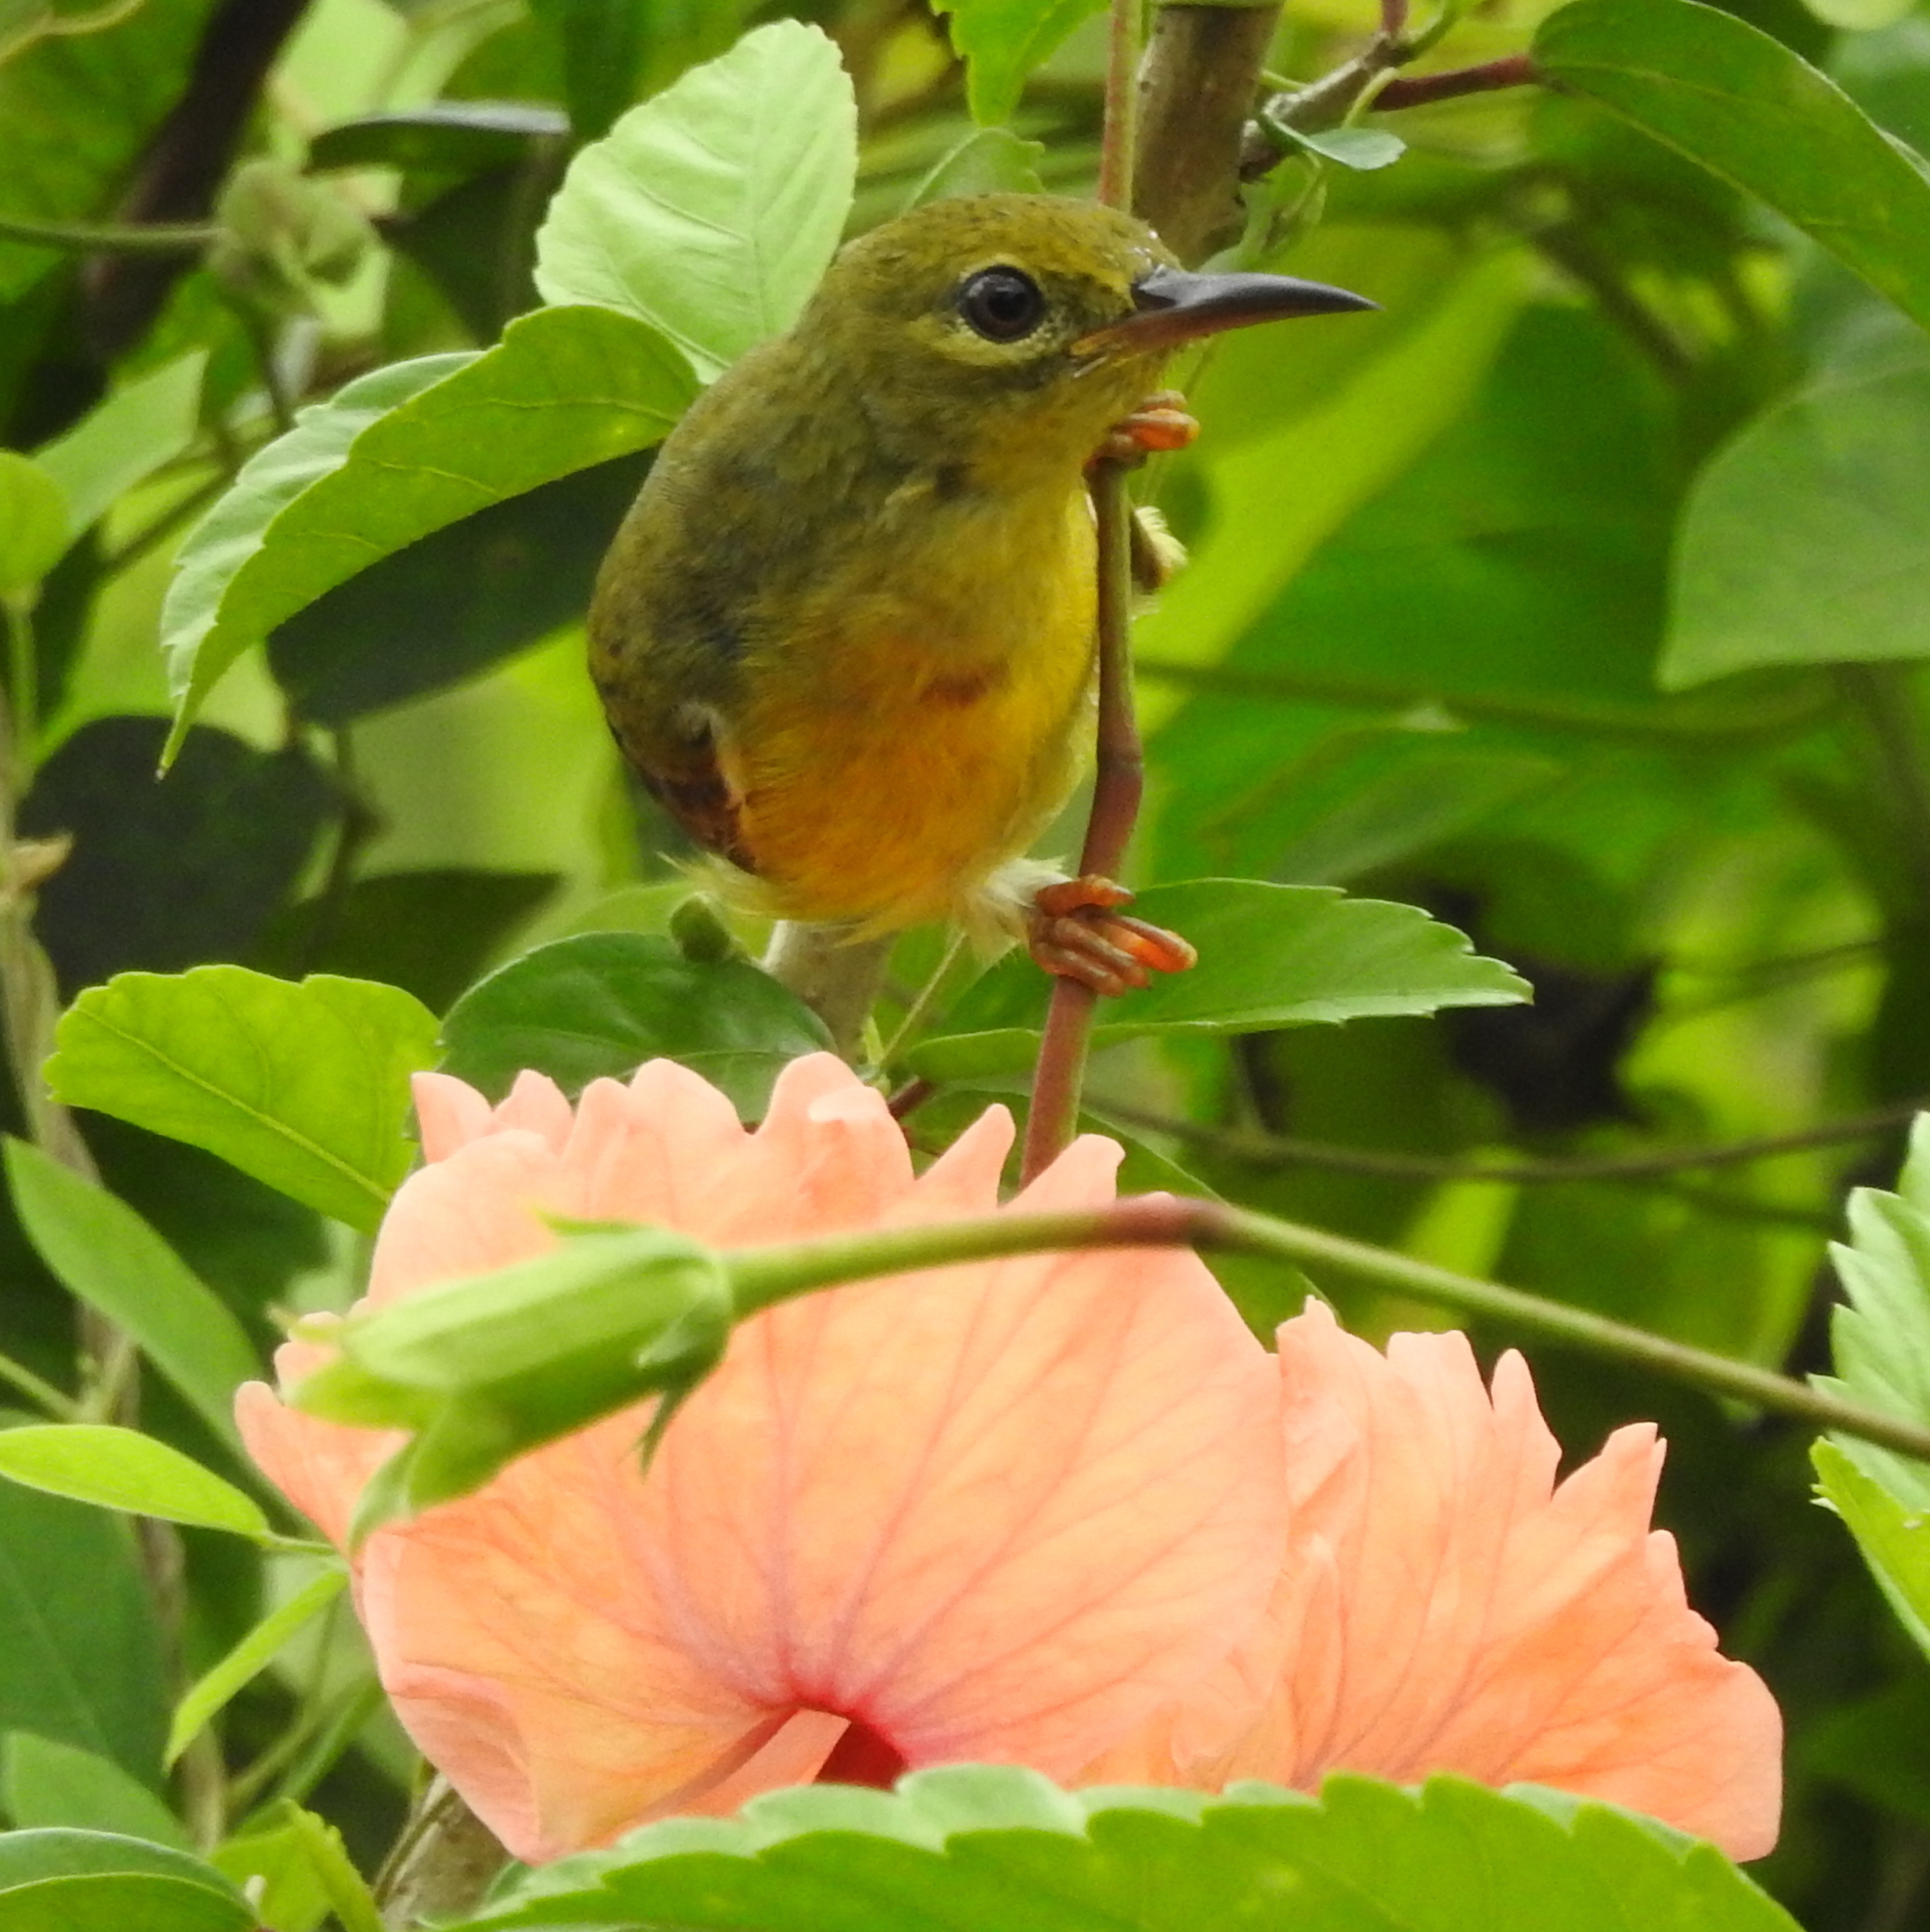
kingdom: Animalia
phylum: Chordata
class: Aves
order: Passeriformes
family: Nectariniidae
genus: Anthreptes
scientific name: Anthreptes malacensis
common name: Brown-throated sunbird
